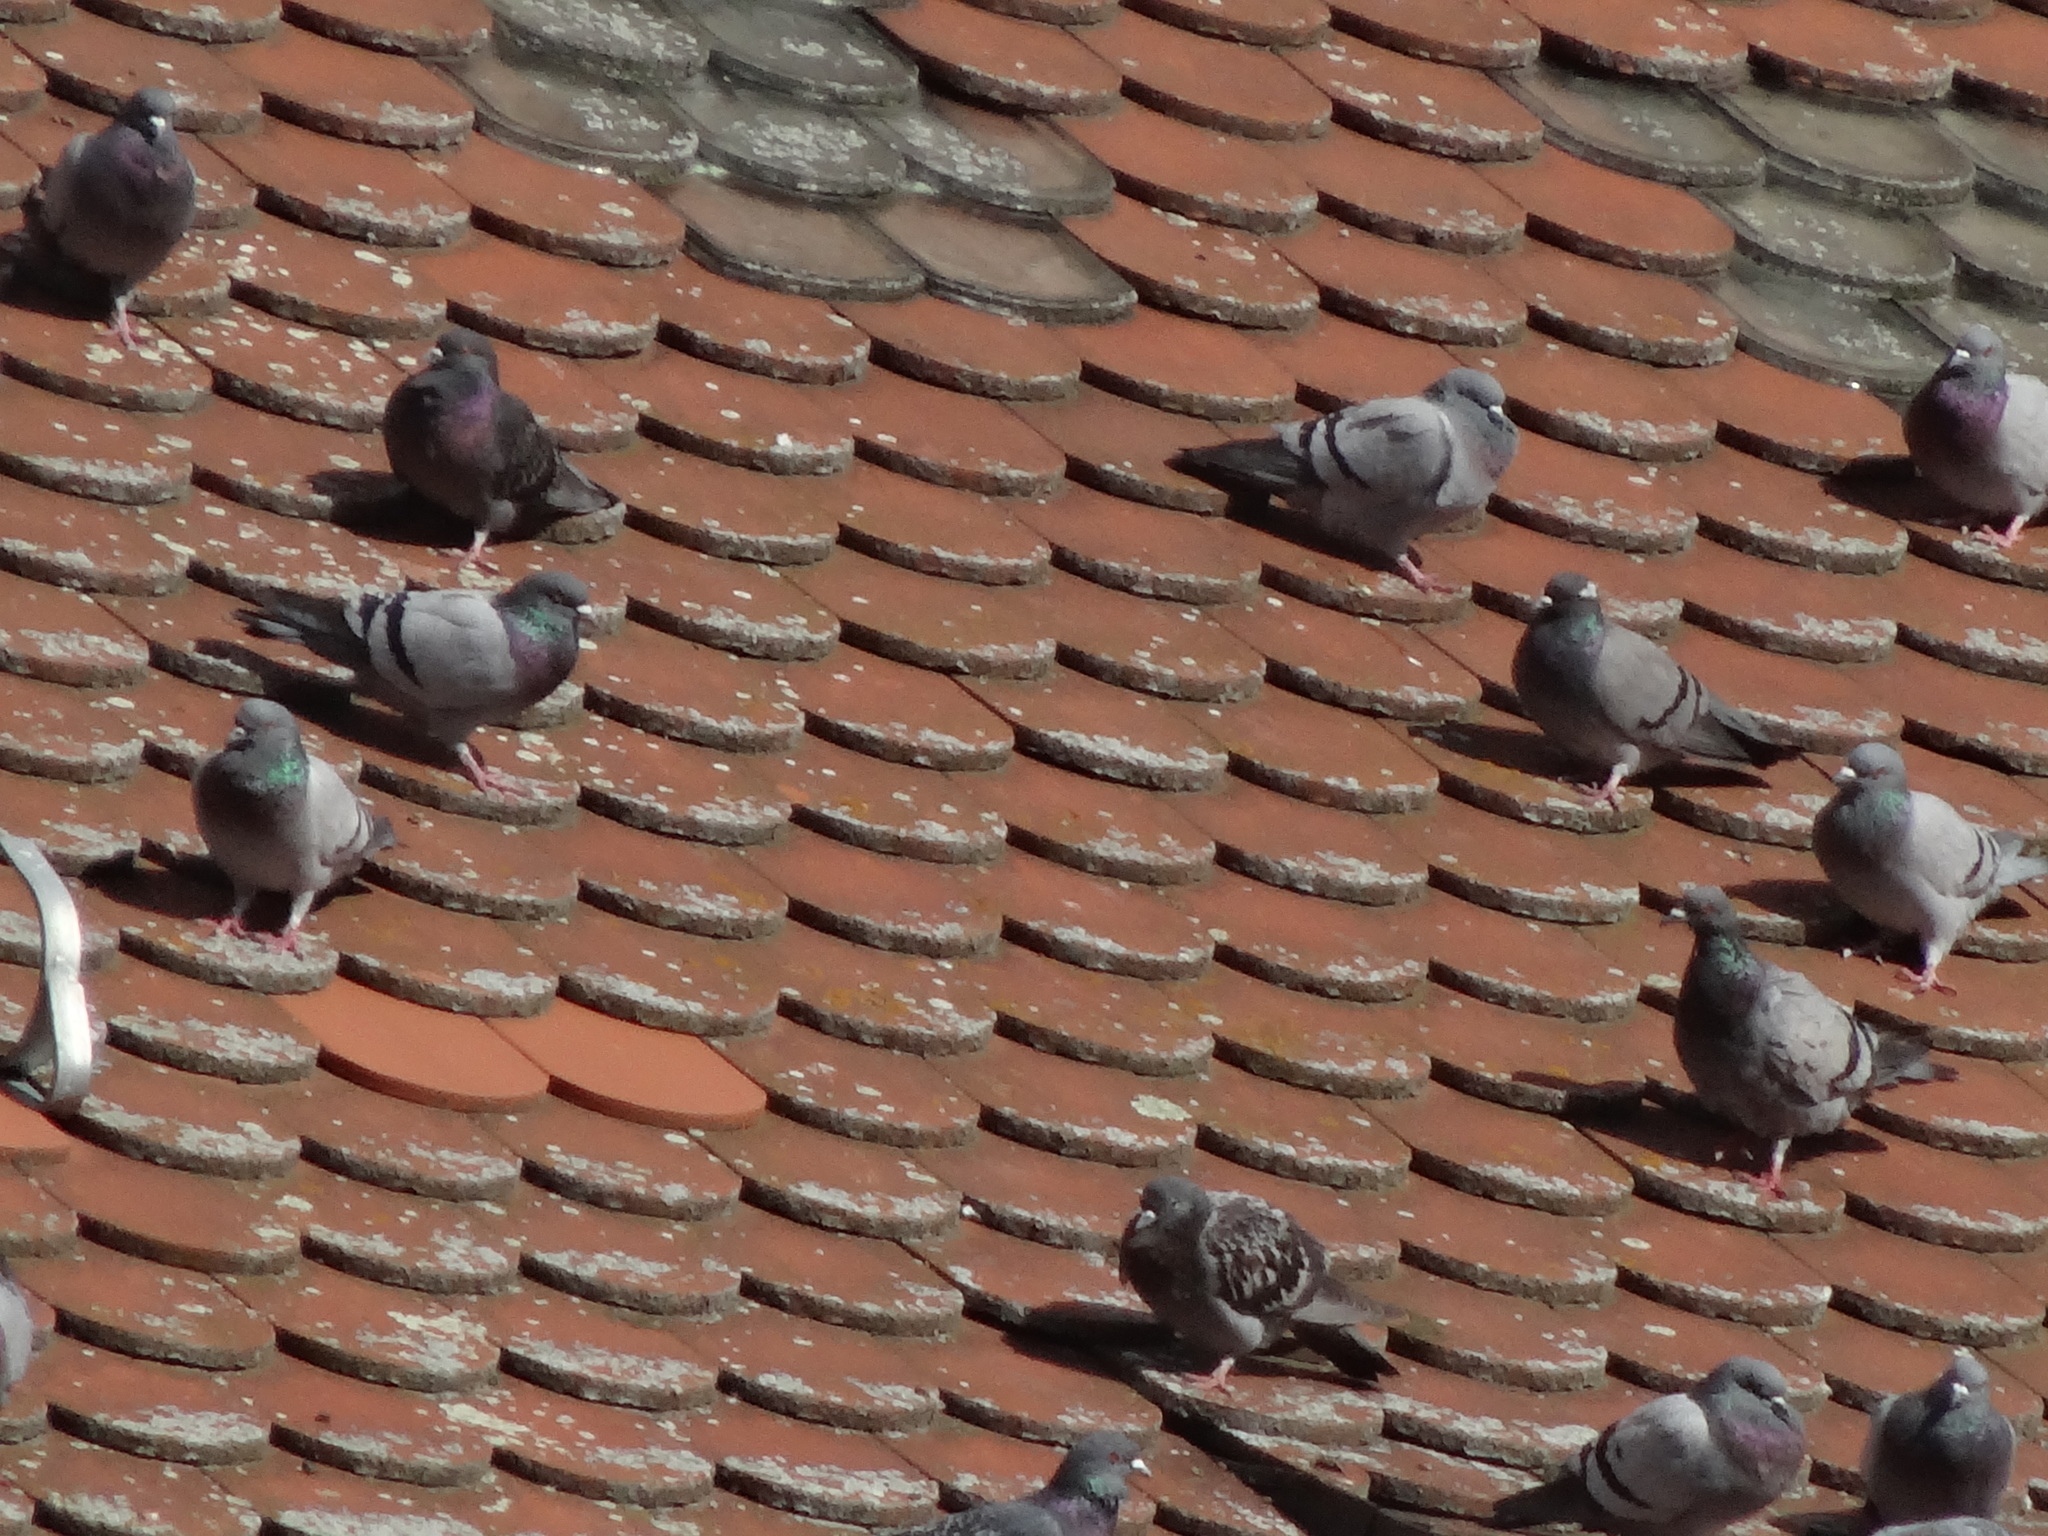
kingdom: Animalia
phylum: Chordata
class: Aves
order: Columbiformes
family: Columbidae
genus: Columba
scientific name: Columba livia
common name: Rock pigeon
